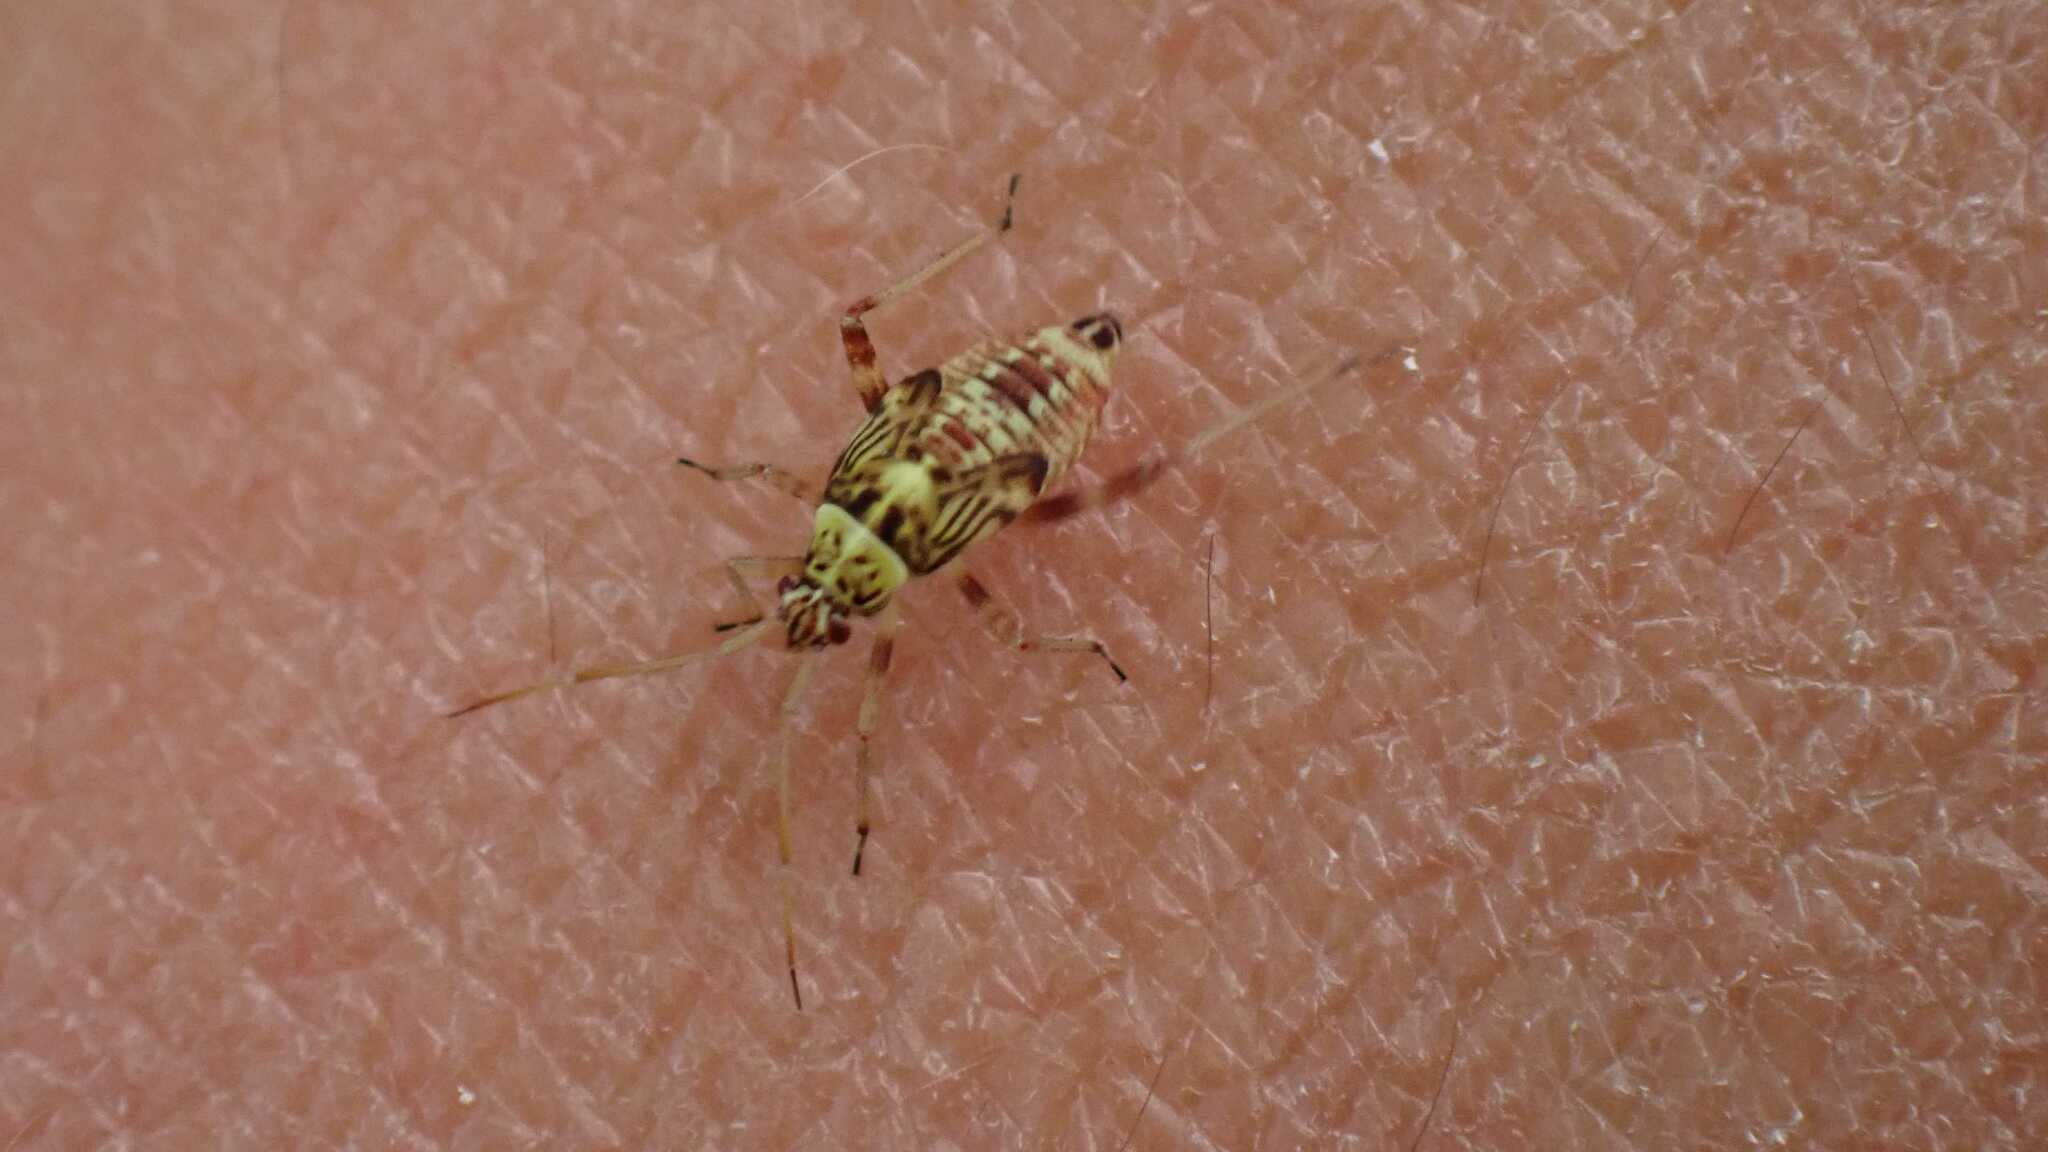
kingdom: Animalia
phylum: Arthropoda
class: Insecta
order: Hemiptera
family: Miridae
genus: Rhabdomiris
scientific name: Rhabdomiris striatellus
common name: Plant bug
